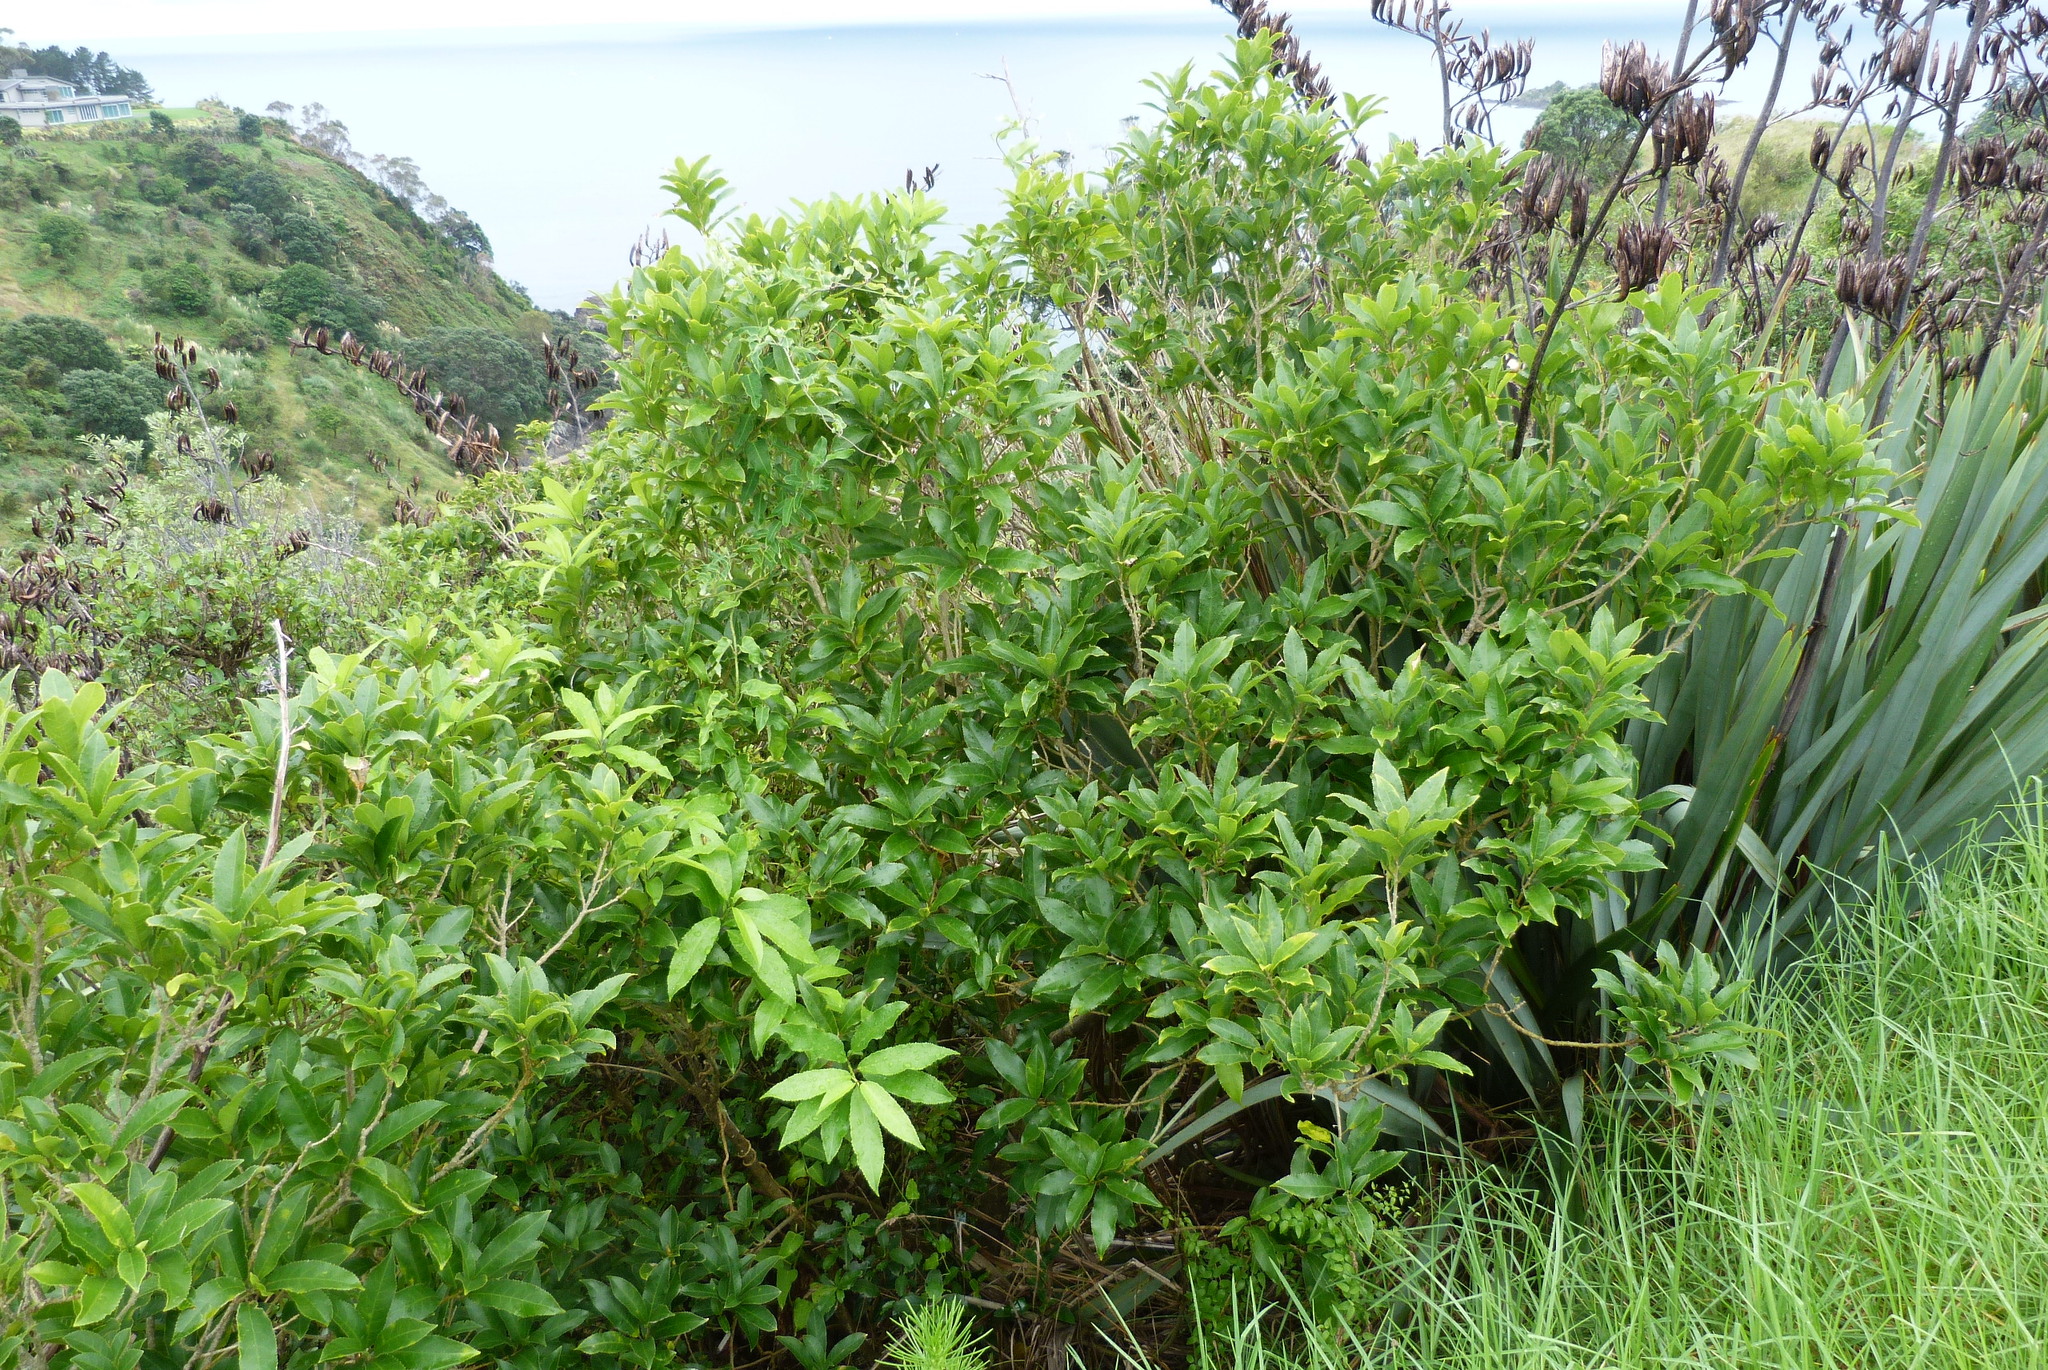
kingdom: Plantae
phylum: Tracheophyta
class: Magnoliopsida
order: Malpighiales
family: Violaceae
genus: Melicytus
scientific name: Melicytus ramiflorus
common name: Mahoe
